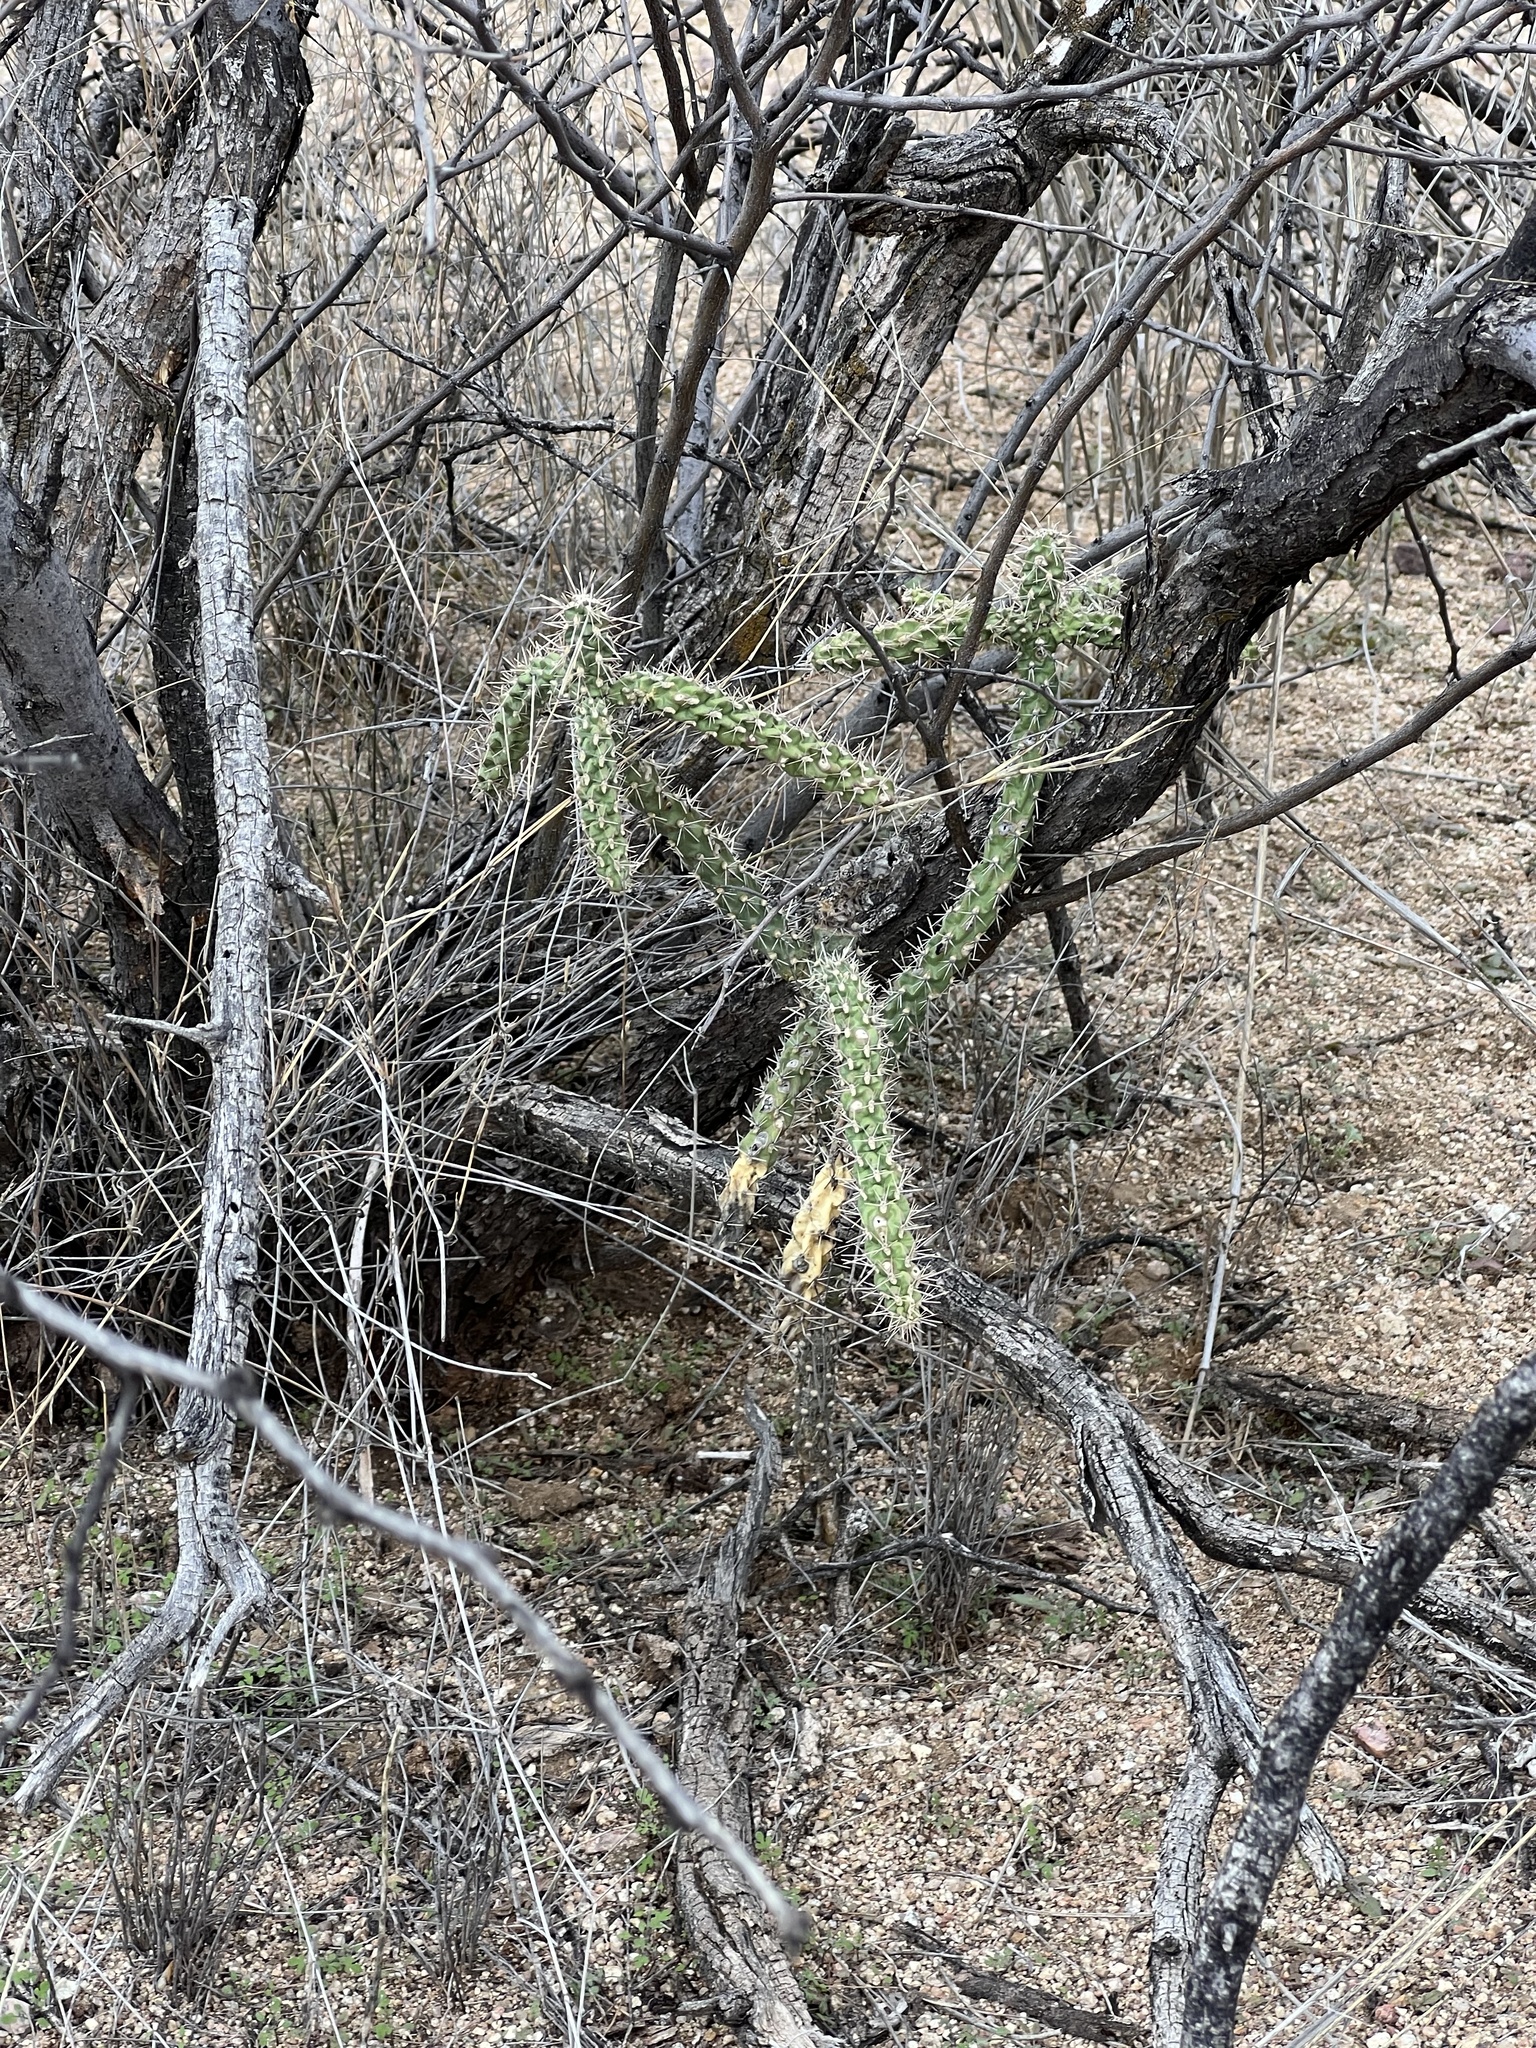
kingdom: Plantae
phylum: Tracheophyta
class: Magnoliopsida
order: Caryophyllales
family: Cactaceae
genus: Cylindropuntia
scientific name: Cylindropuntia imbricata
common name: Candelabrum cactus
